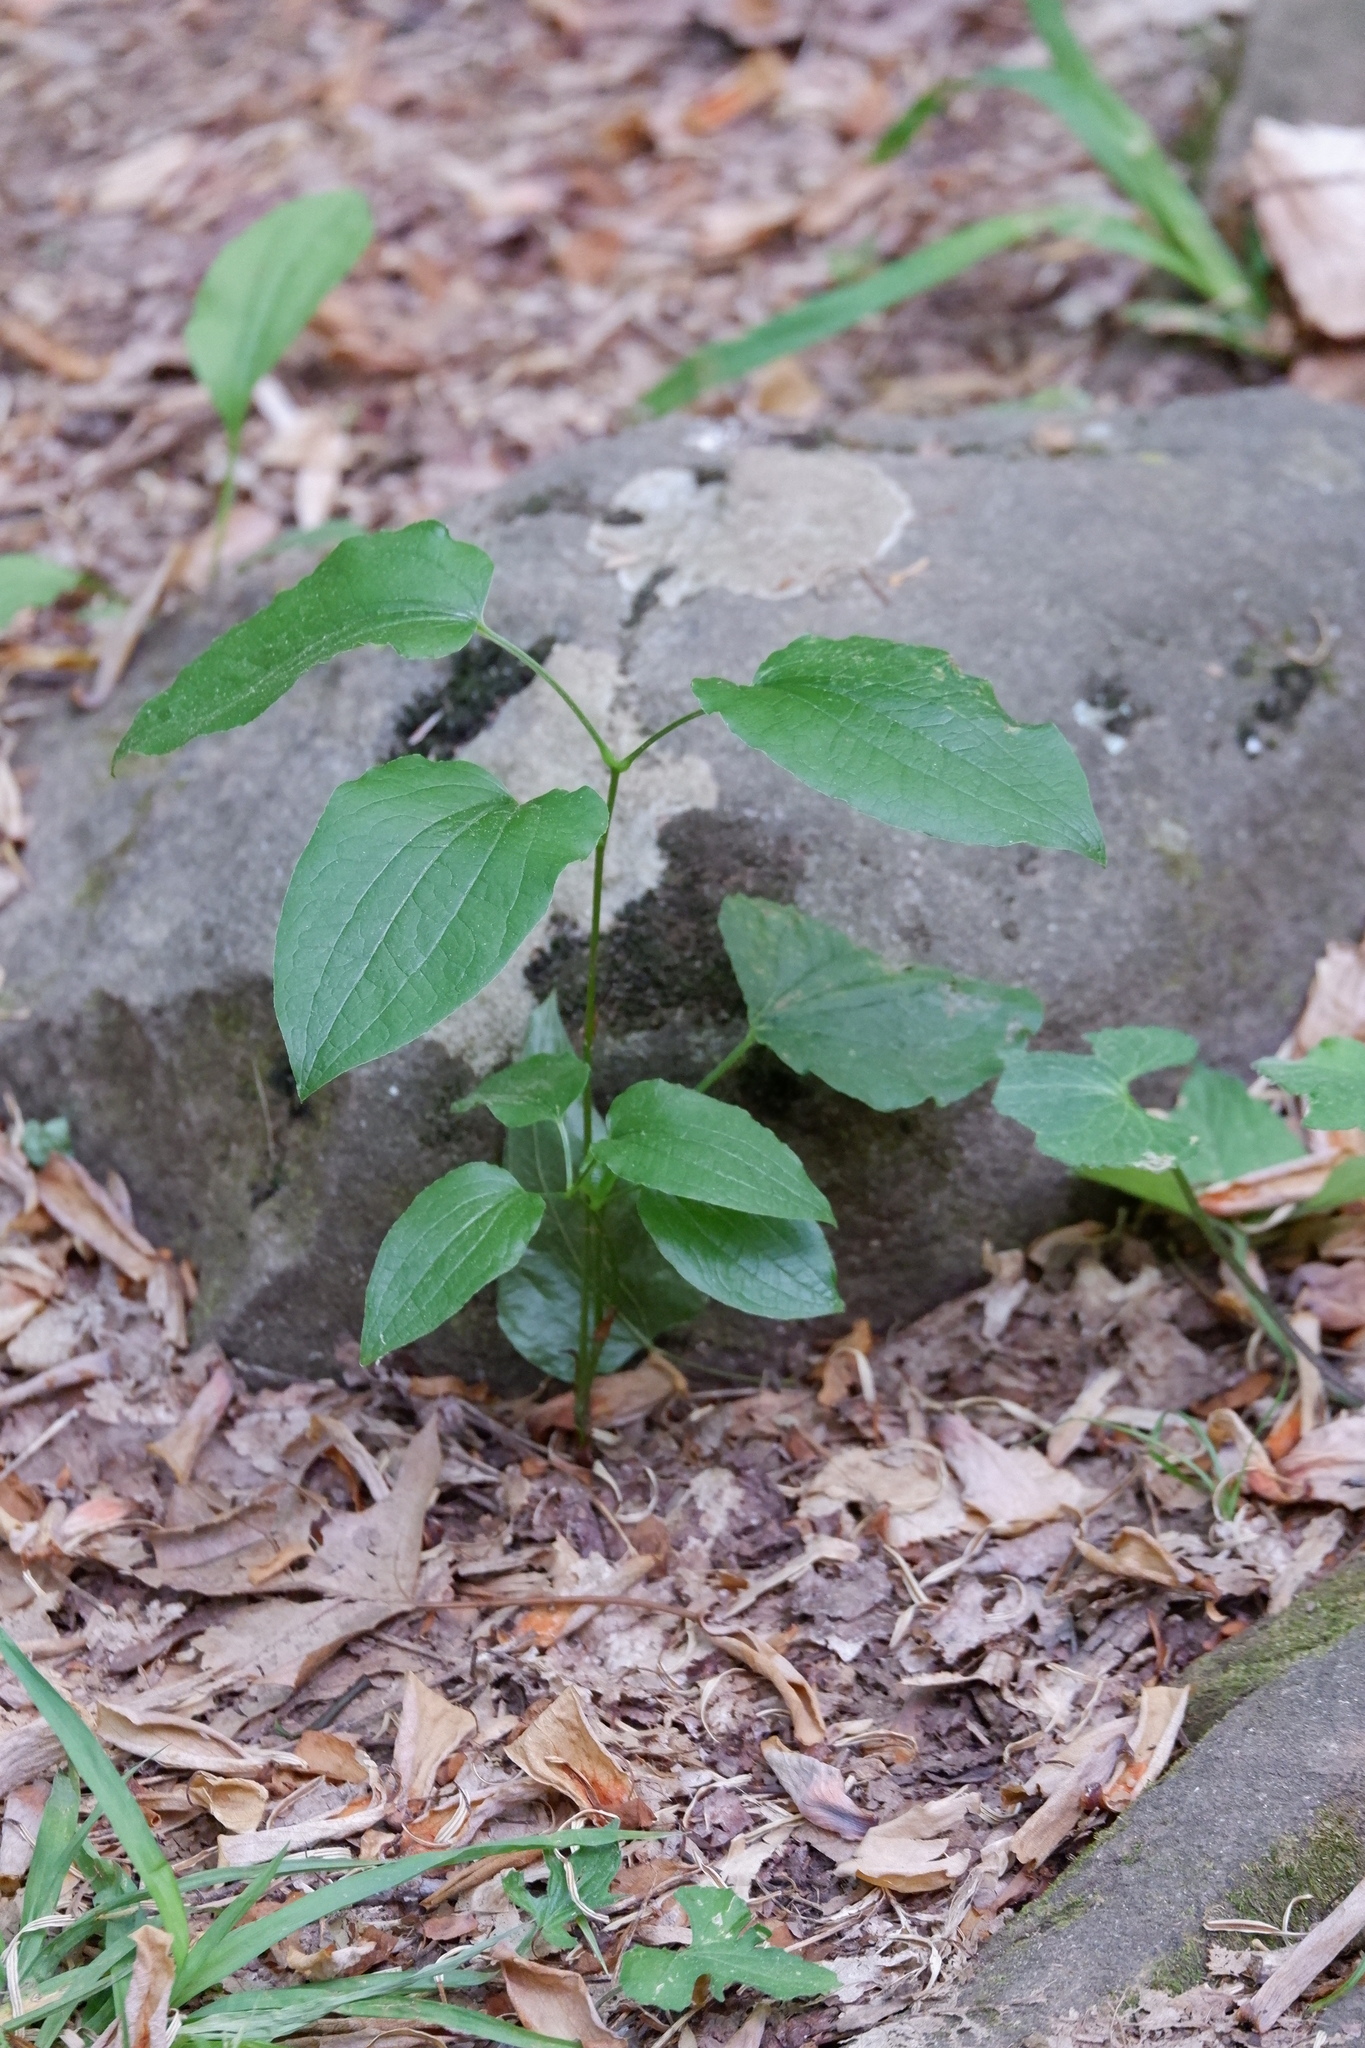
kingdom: Plantae
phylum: Tracheophyta
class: Liliopsida
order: Liliales
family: Smilacaceae
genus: Smilax
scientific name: Smilax pulverulenta
